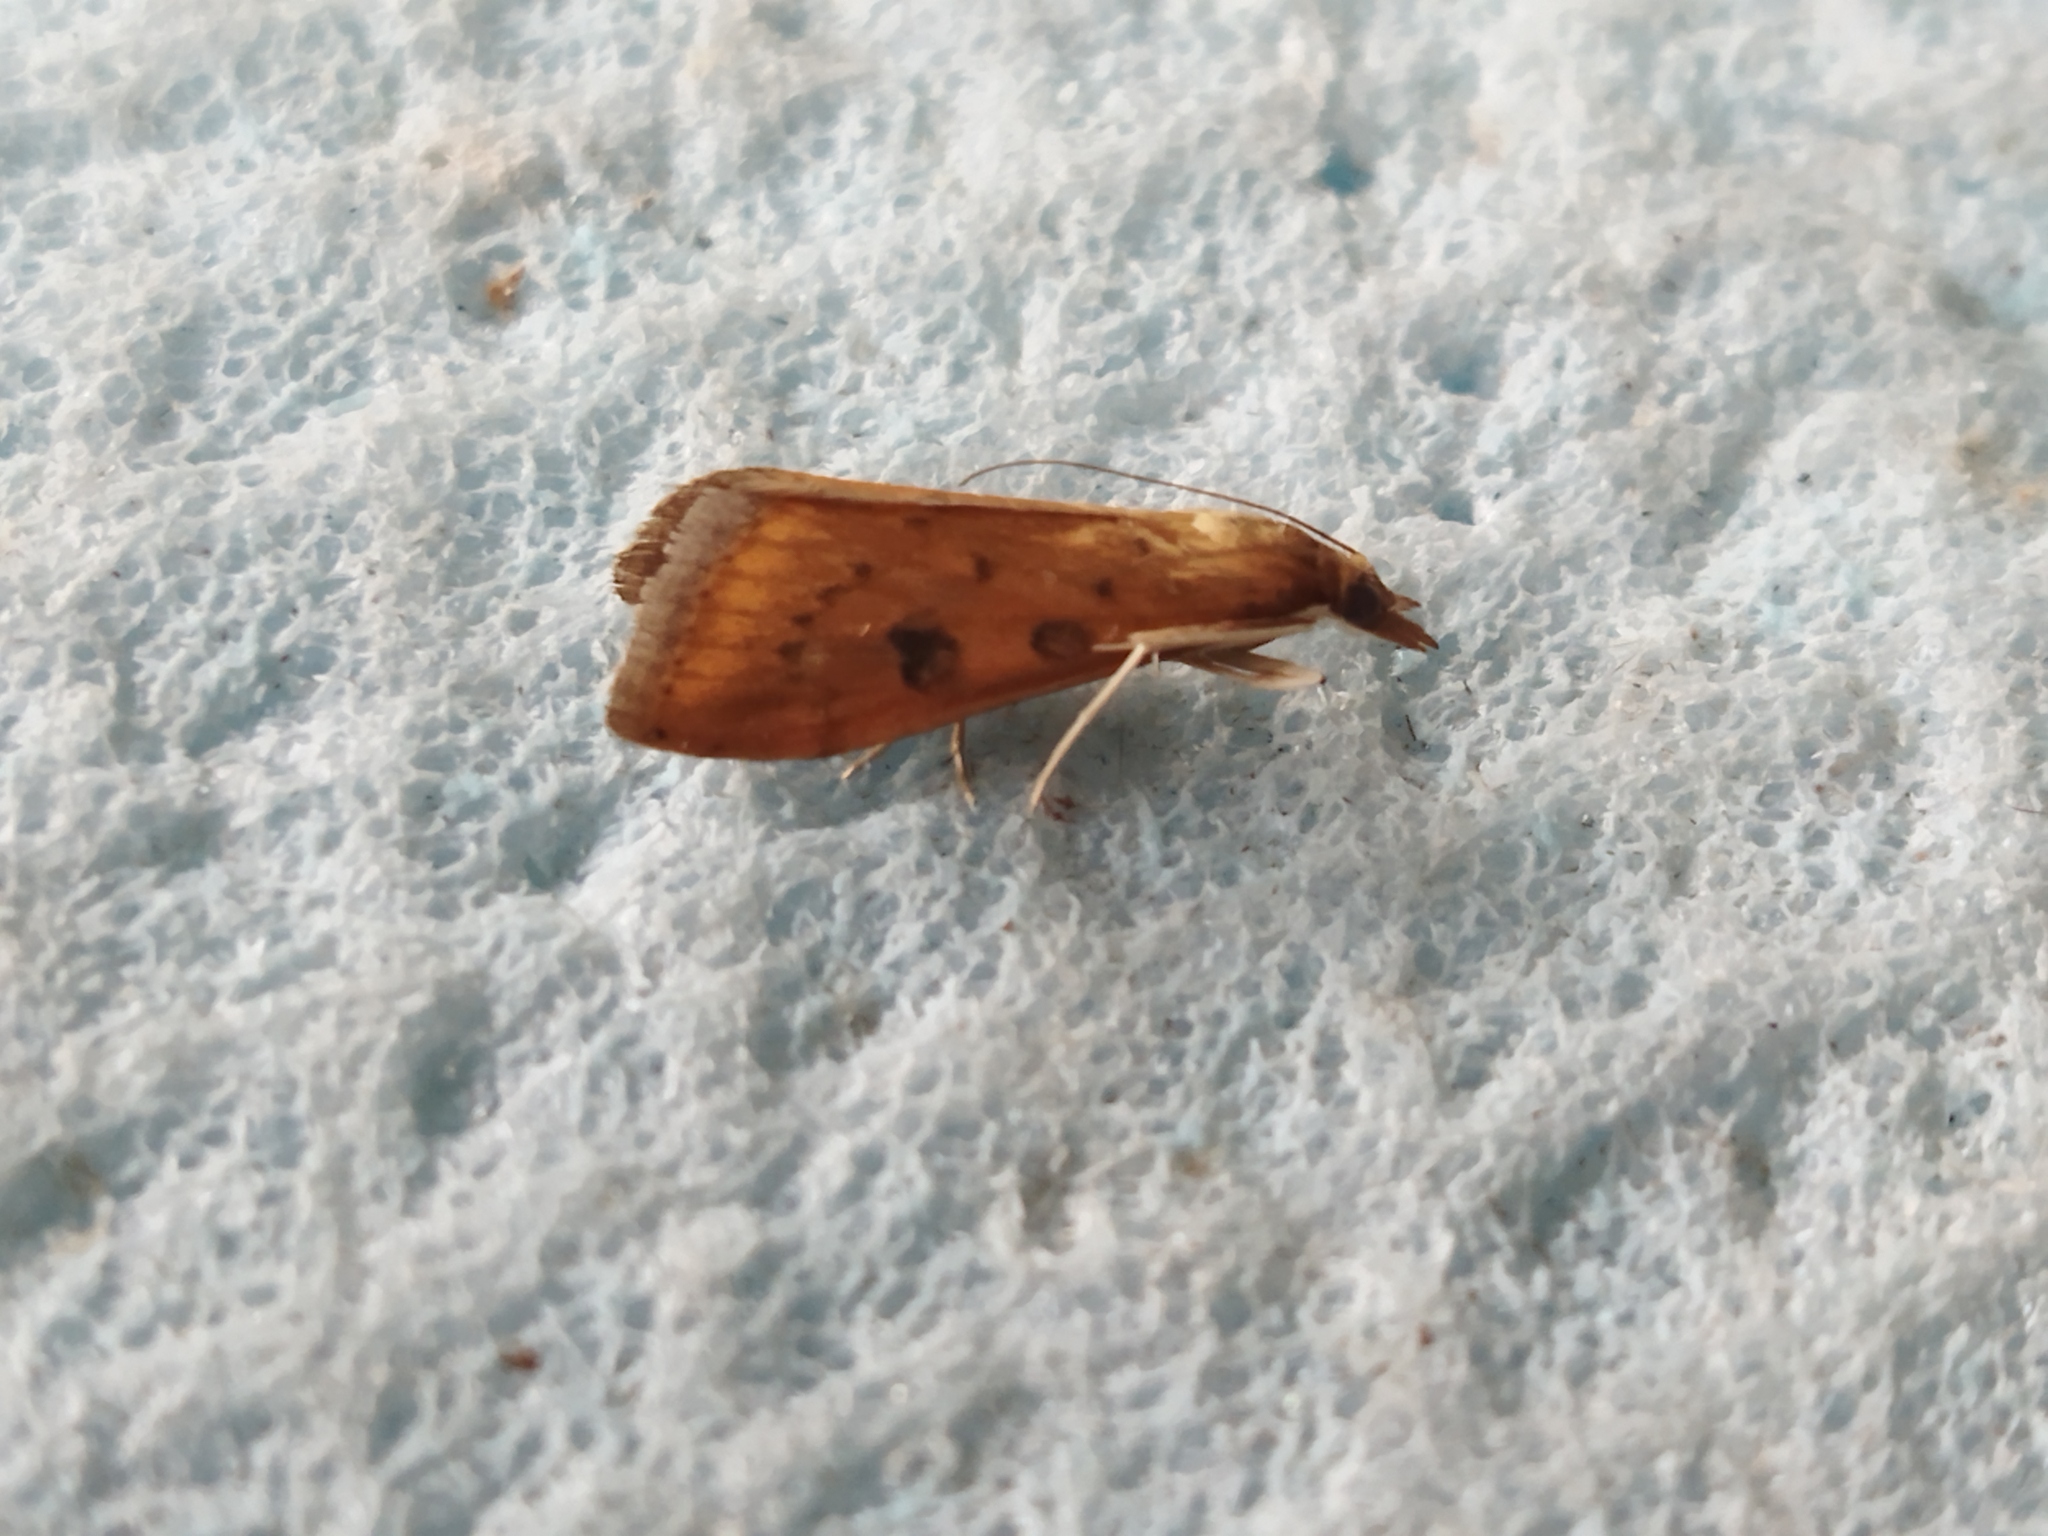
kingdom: Animalia
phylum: Arthropoda
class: Insecta
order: Lepidoptera
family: Crambidae
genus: Udea
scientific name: Udea ferrugalis
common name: Rusty dot
